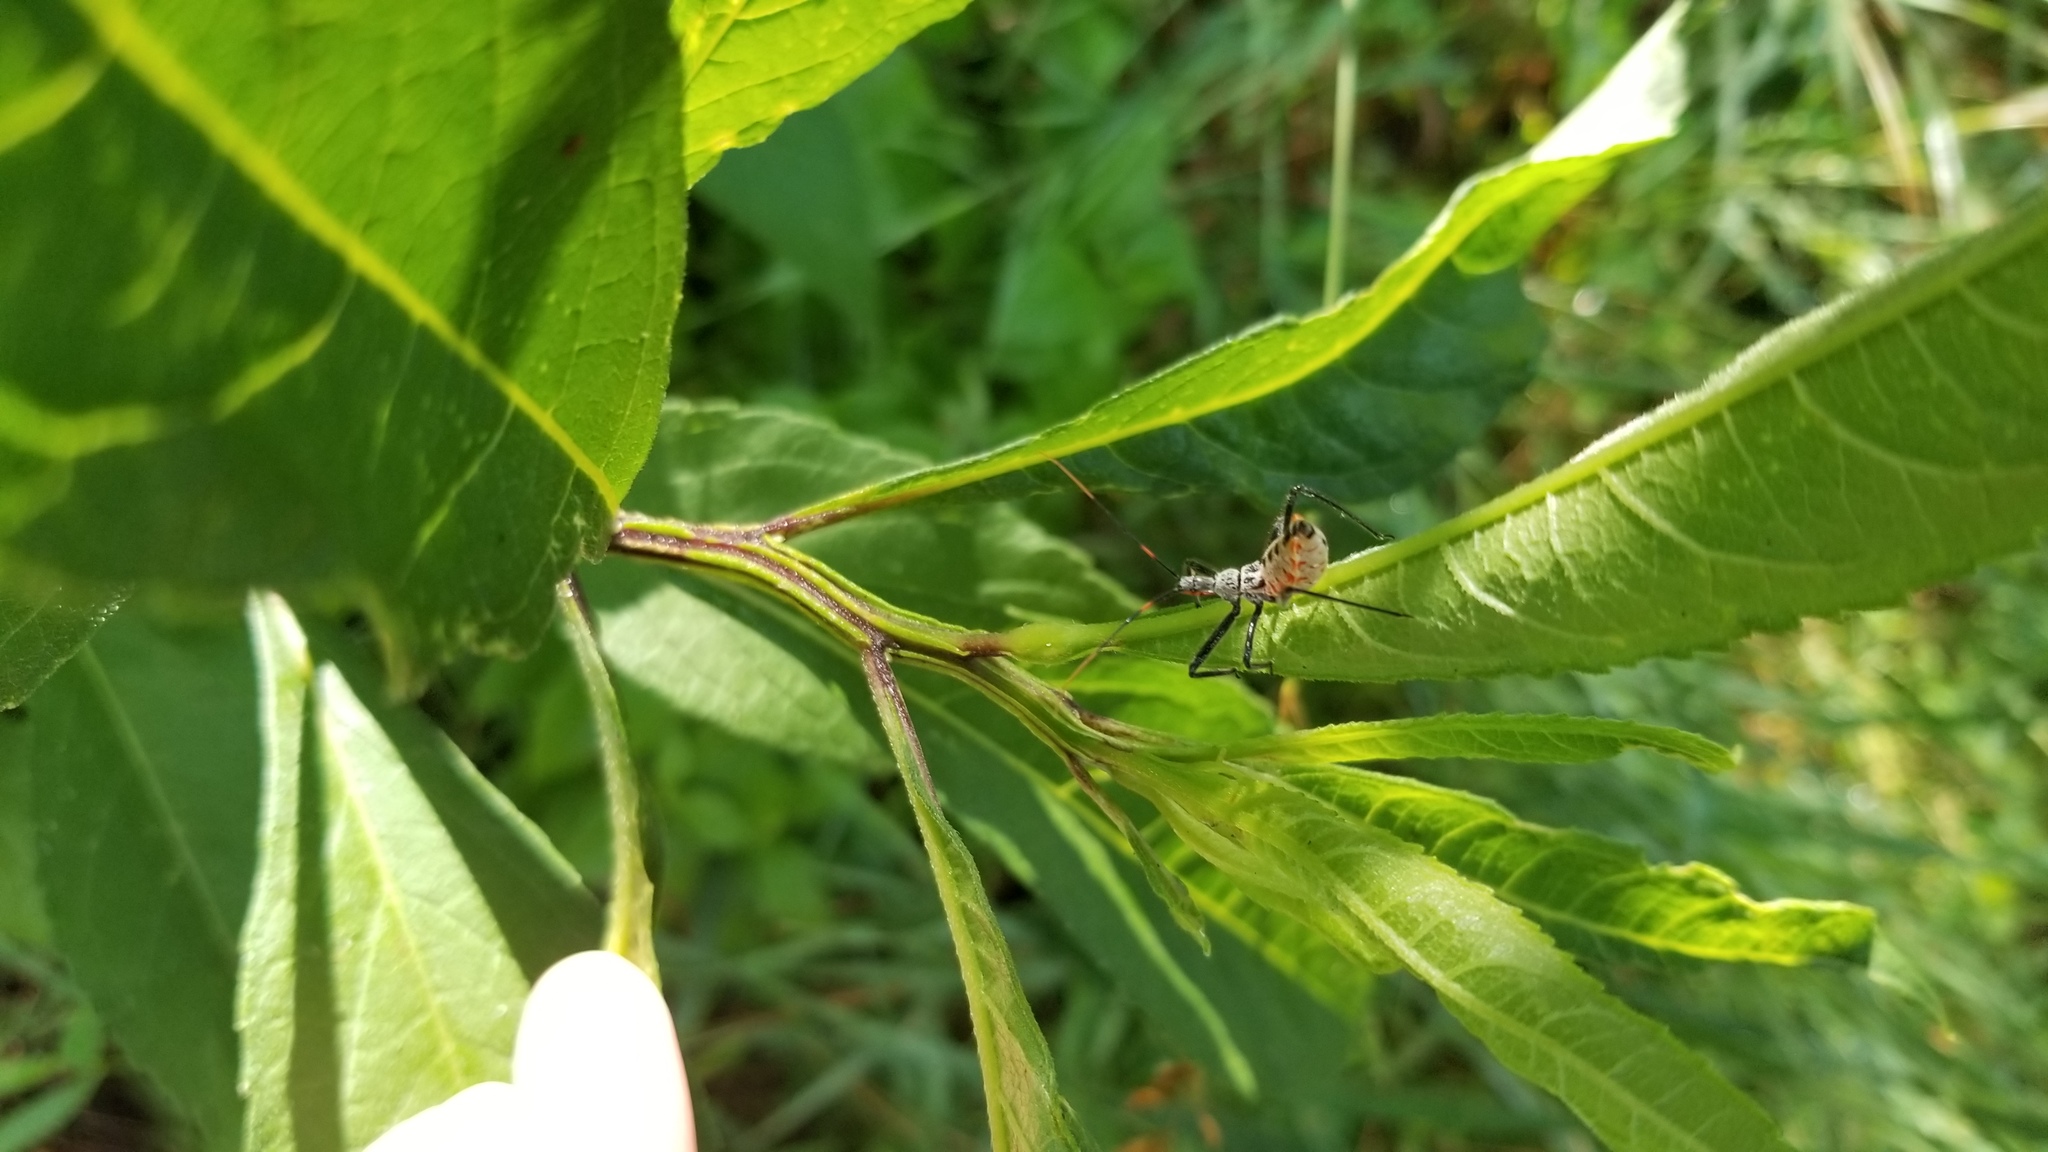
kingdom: Animalia
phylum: Arthropoda
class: Insecta
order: Hemiptera
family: Reduviidae
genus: Arilus
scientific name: Arilus cristatus
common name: North american wheel bug
